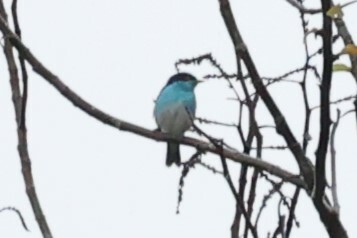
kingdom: Animalia
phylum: Chordata
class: Aves
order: Passeriformes
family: Thraupidae
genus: Dacnis
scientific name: Dacnis lineata
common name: Black-faced dacnis
